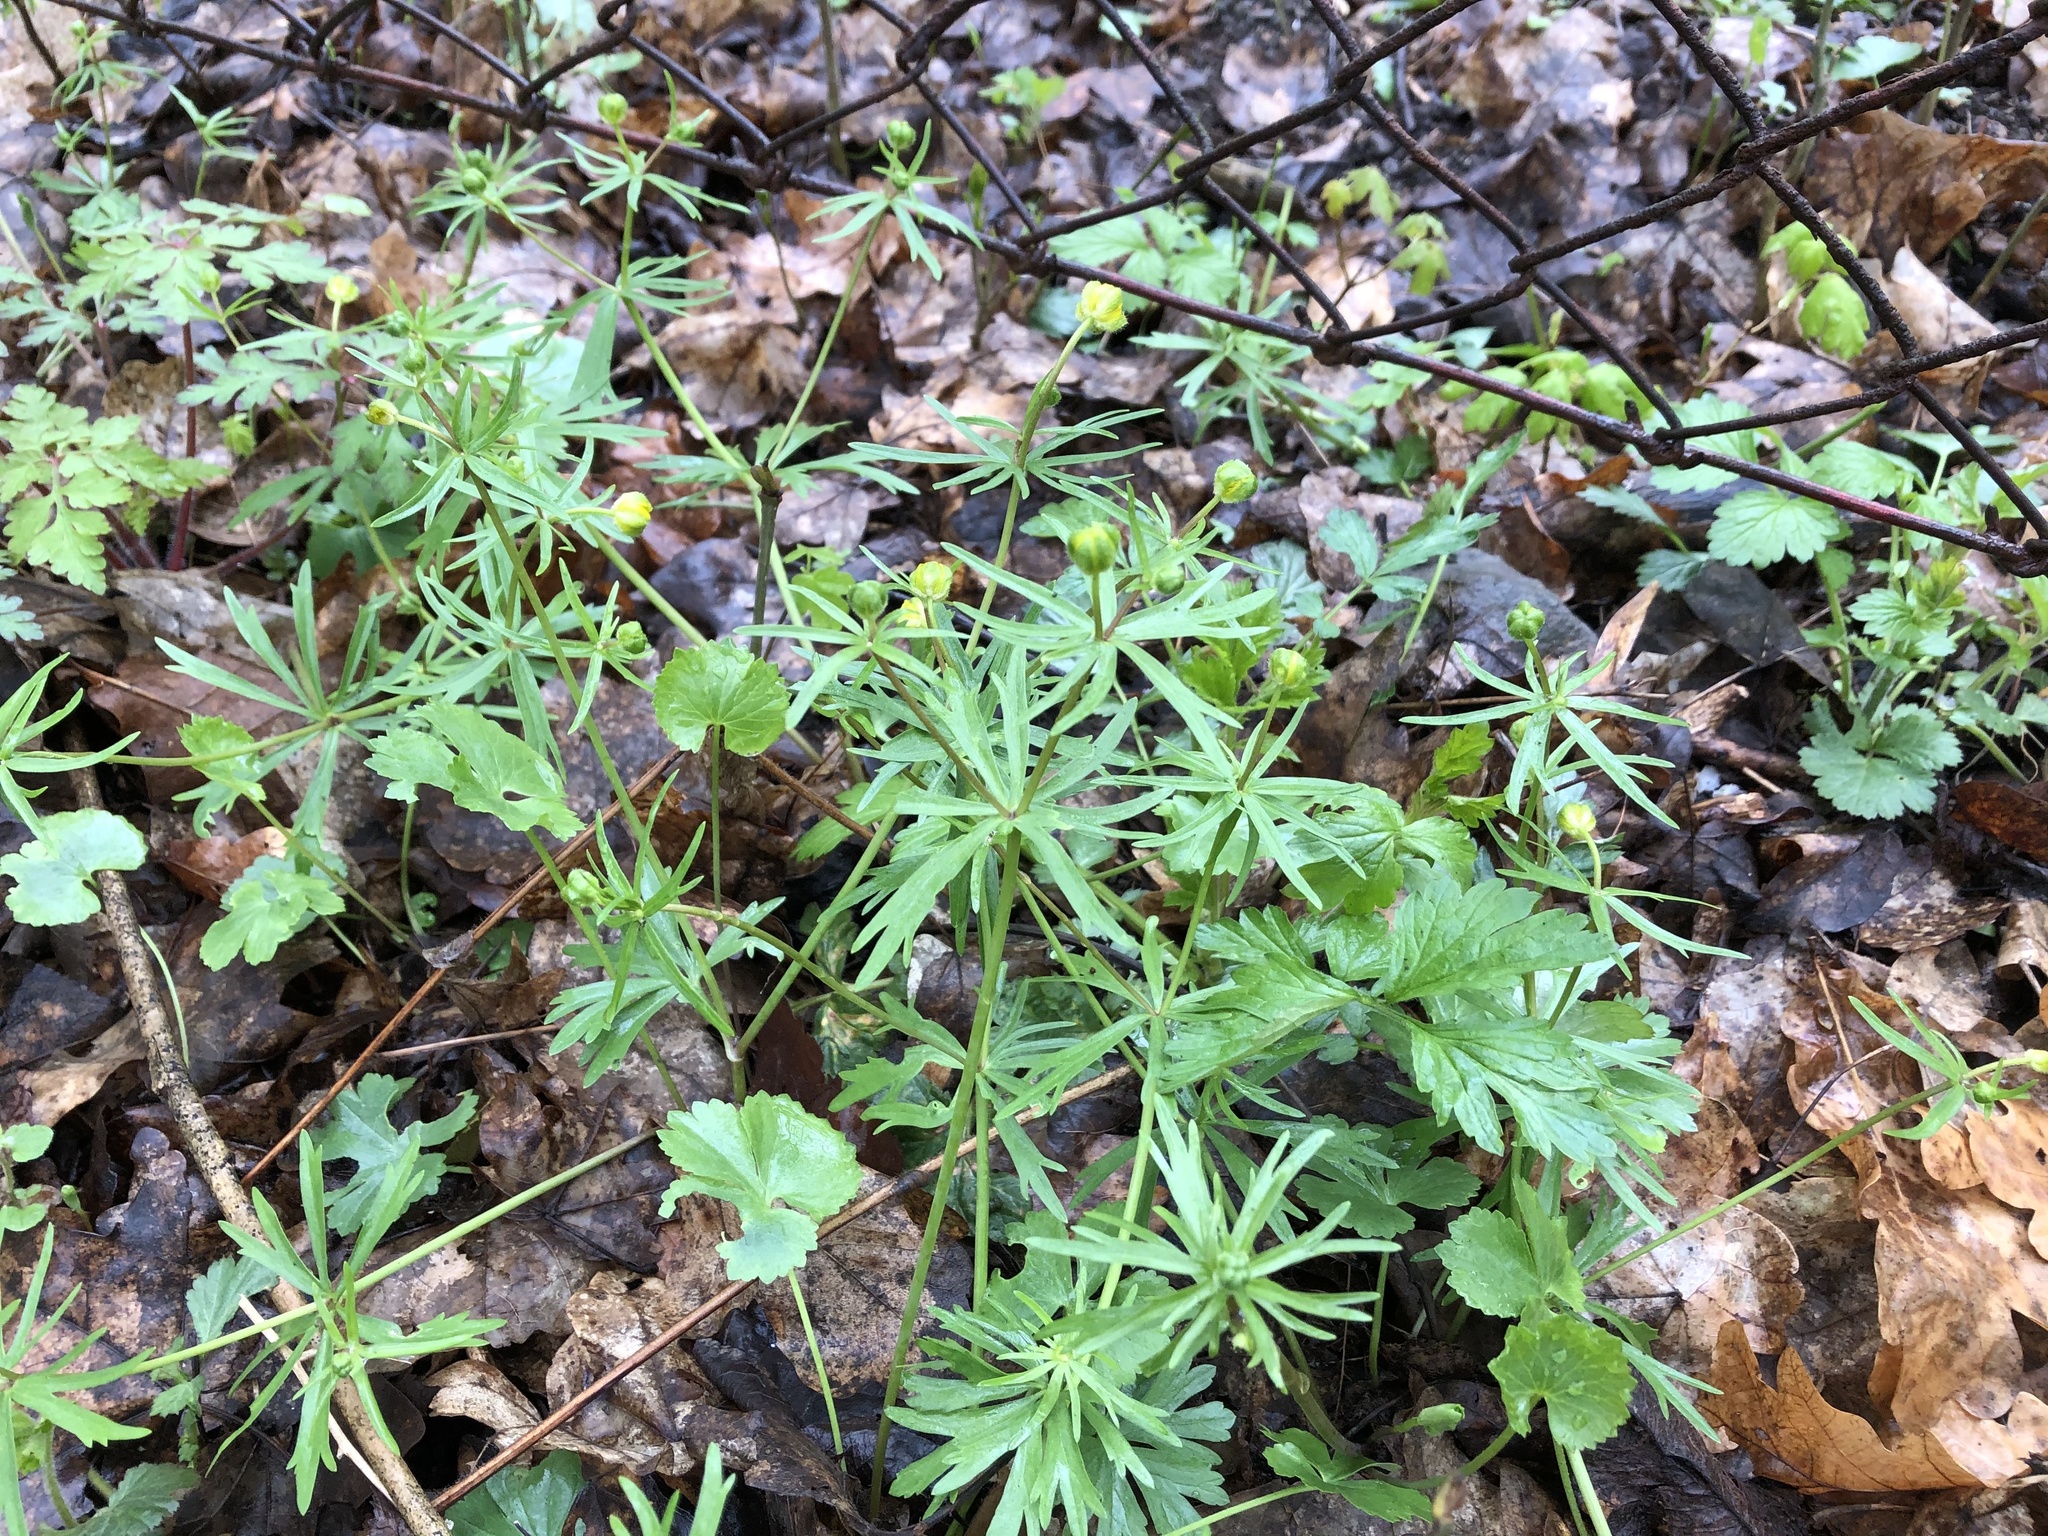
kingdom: Plantae
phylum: Tracheophyta
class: Magnoliopsida
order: Ranunculales
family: Ranunculaceae
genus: Ranunculus
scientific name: Ranunculus auricomus
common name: Goldilocks buttercup
